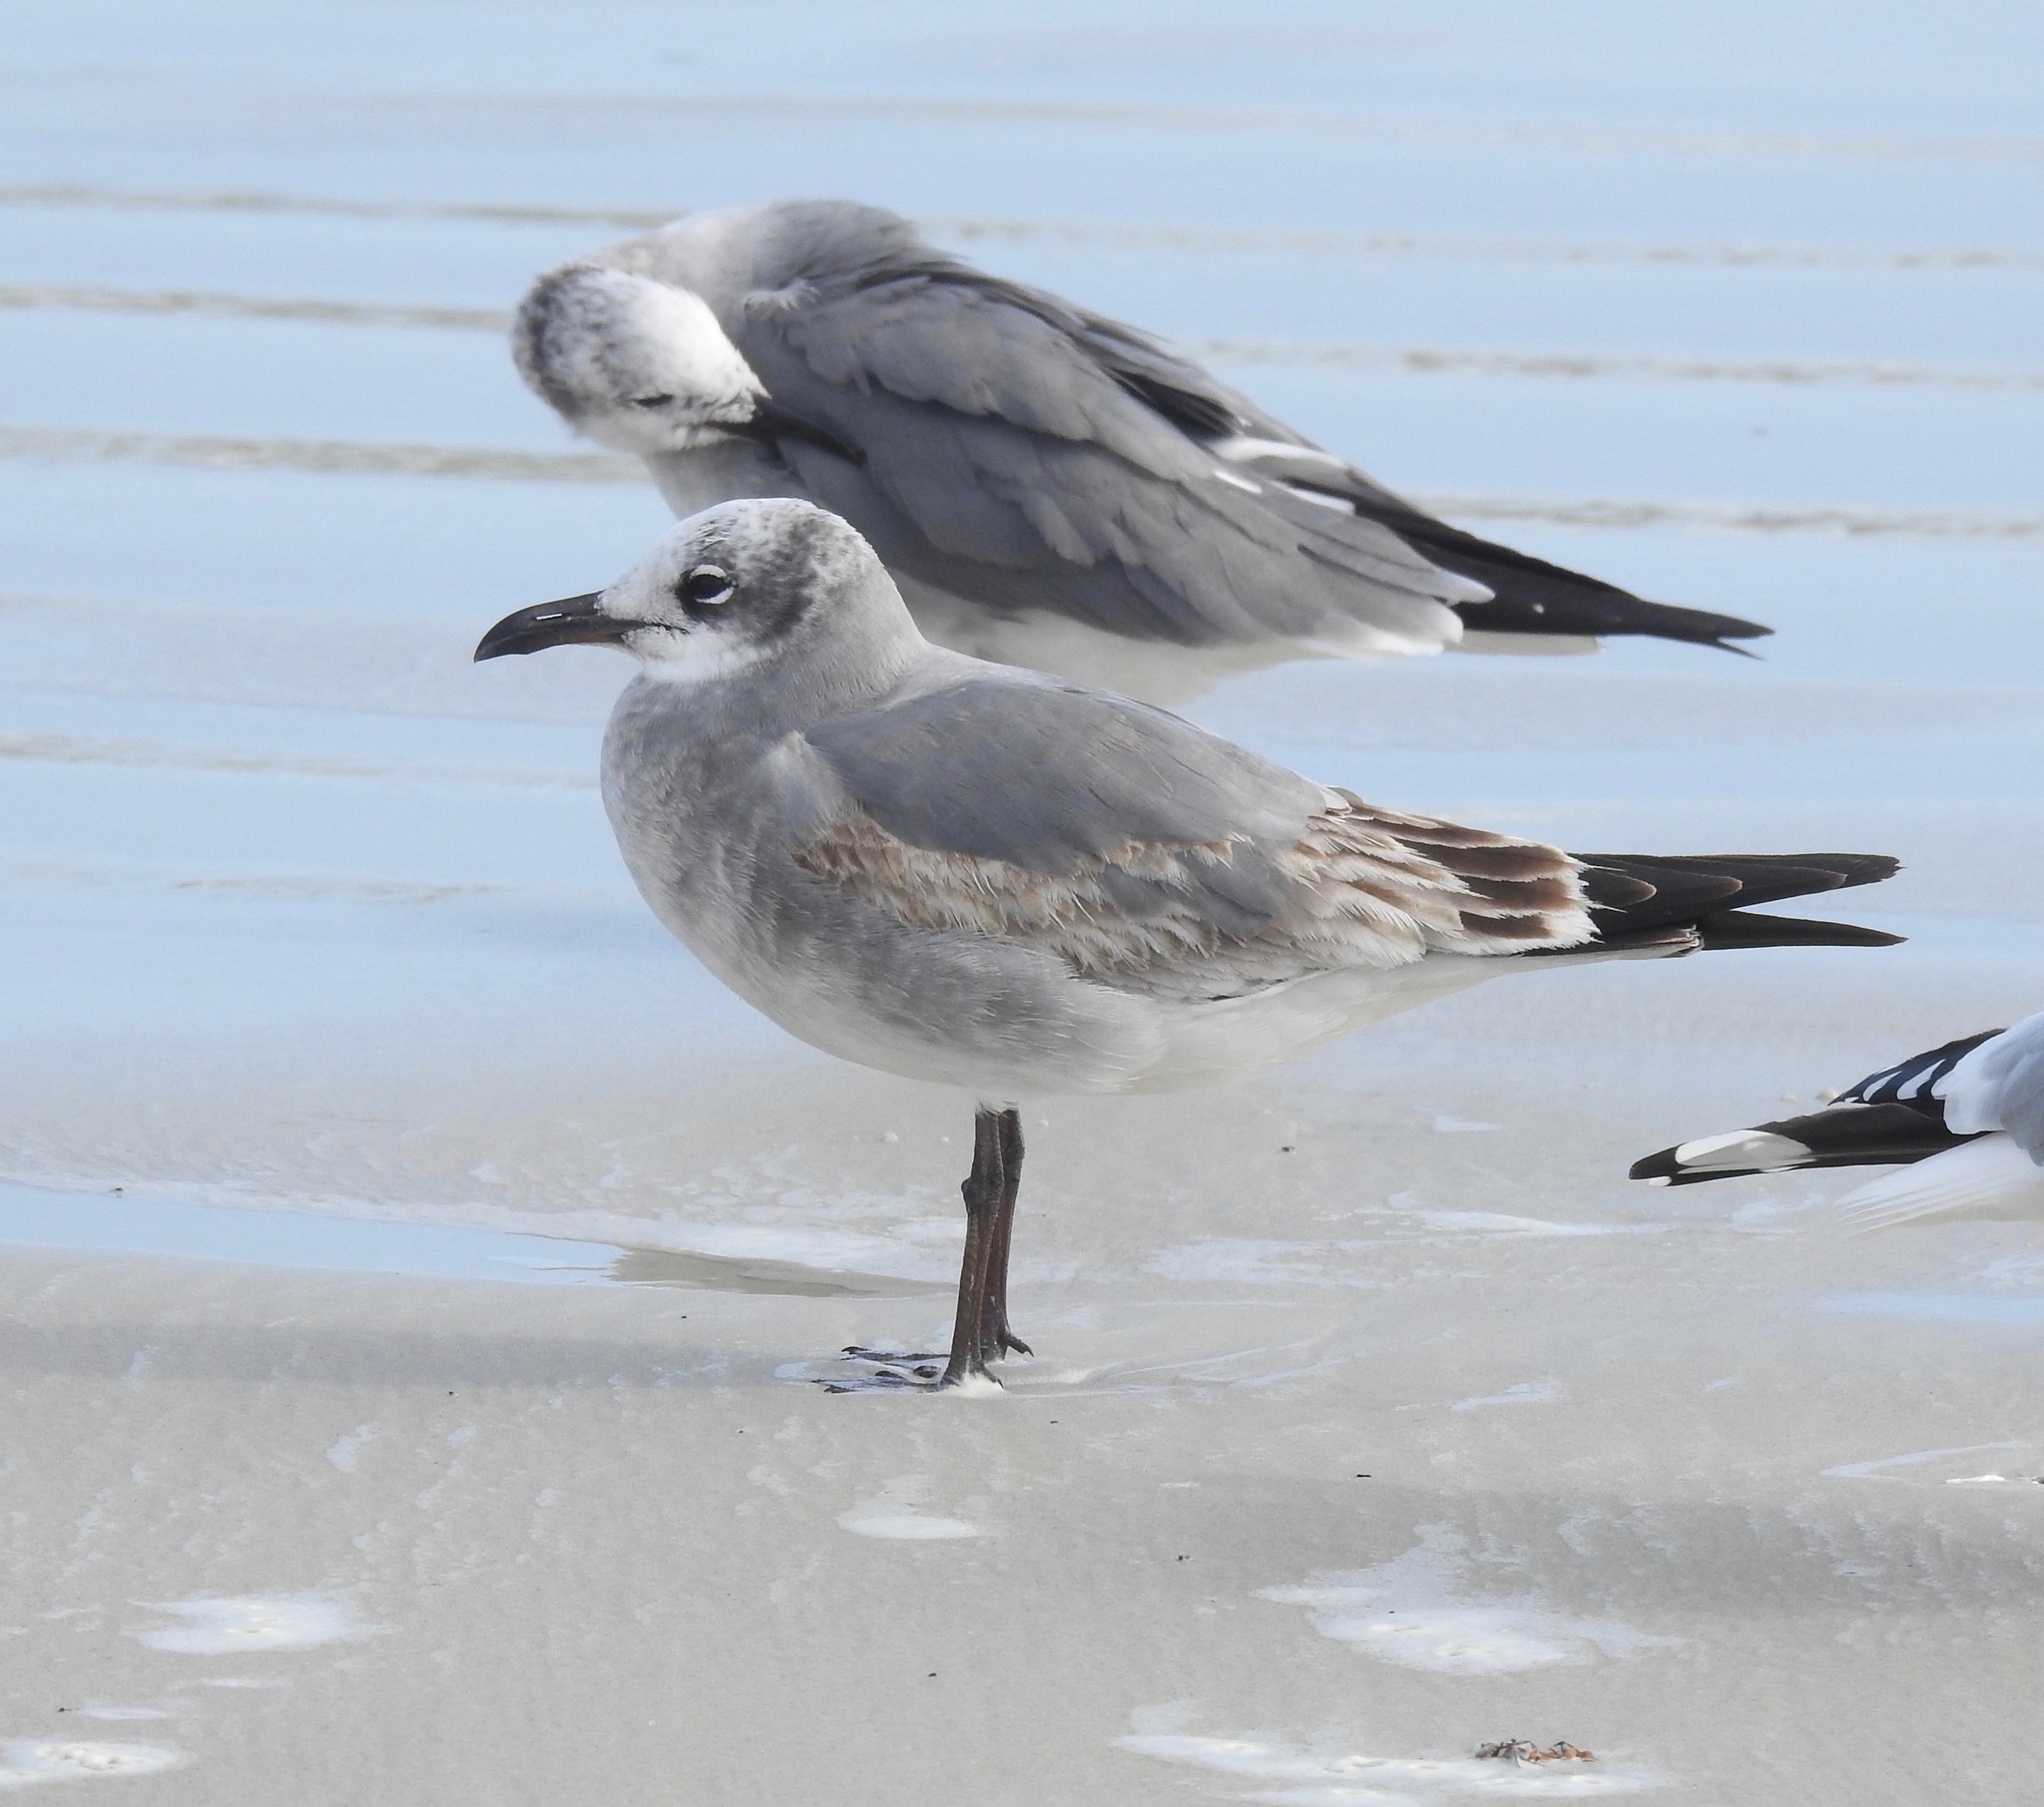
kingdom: Animalia
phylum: Chordata
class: Aves
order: Charadriiformes
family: Laridae
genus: Leucophaeus
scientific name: Leucophaeus atricilla
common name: Laughing gull
